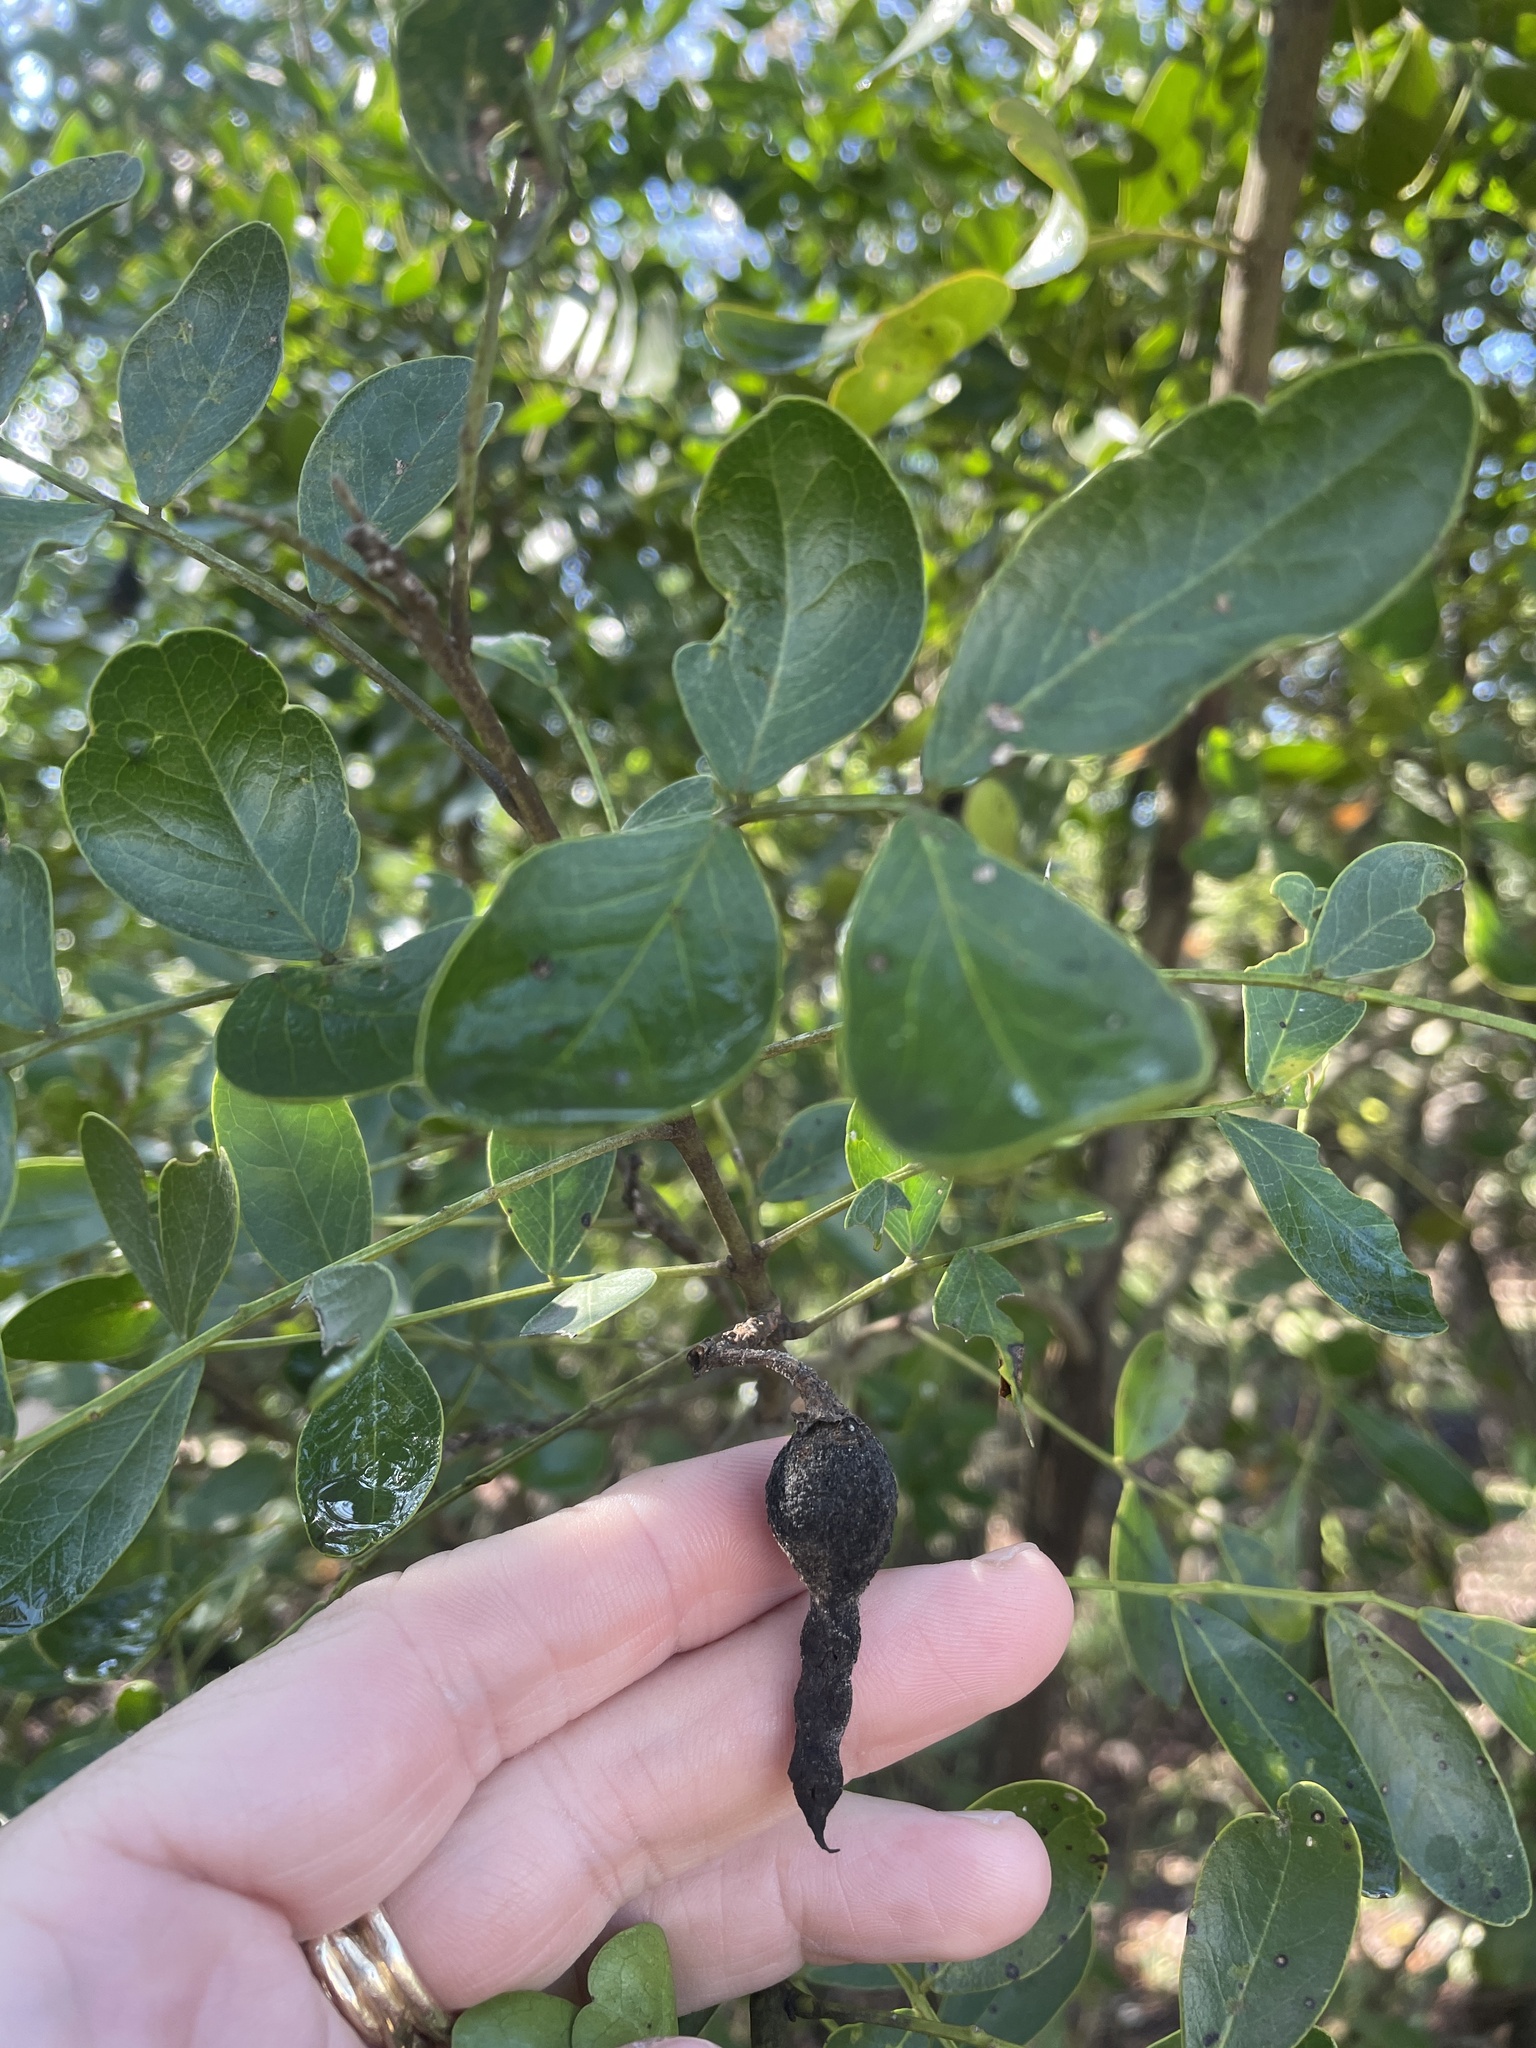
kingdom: Plantae
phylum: Tracheophyta
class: Magnoliopsida
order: Fabales
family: Fabaceae
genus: Dermatophyllum
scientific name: Dermatophyllum secundiflorum
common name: Texas-mountain-laurel
